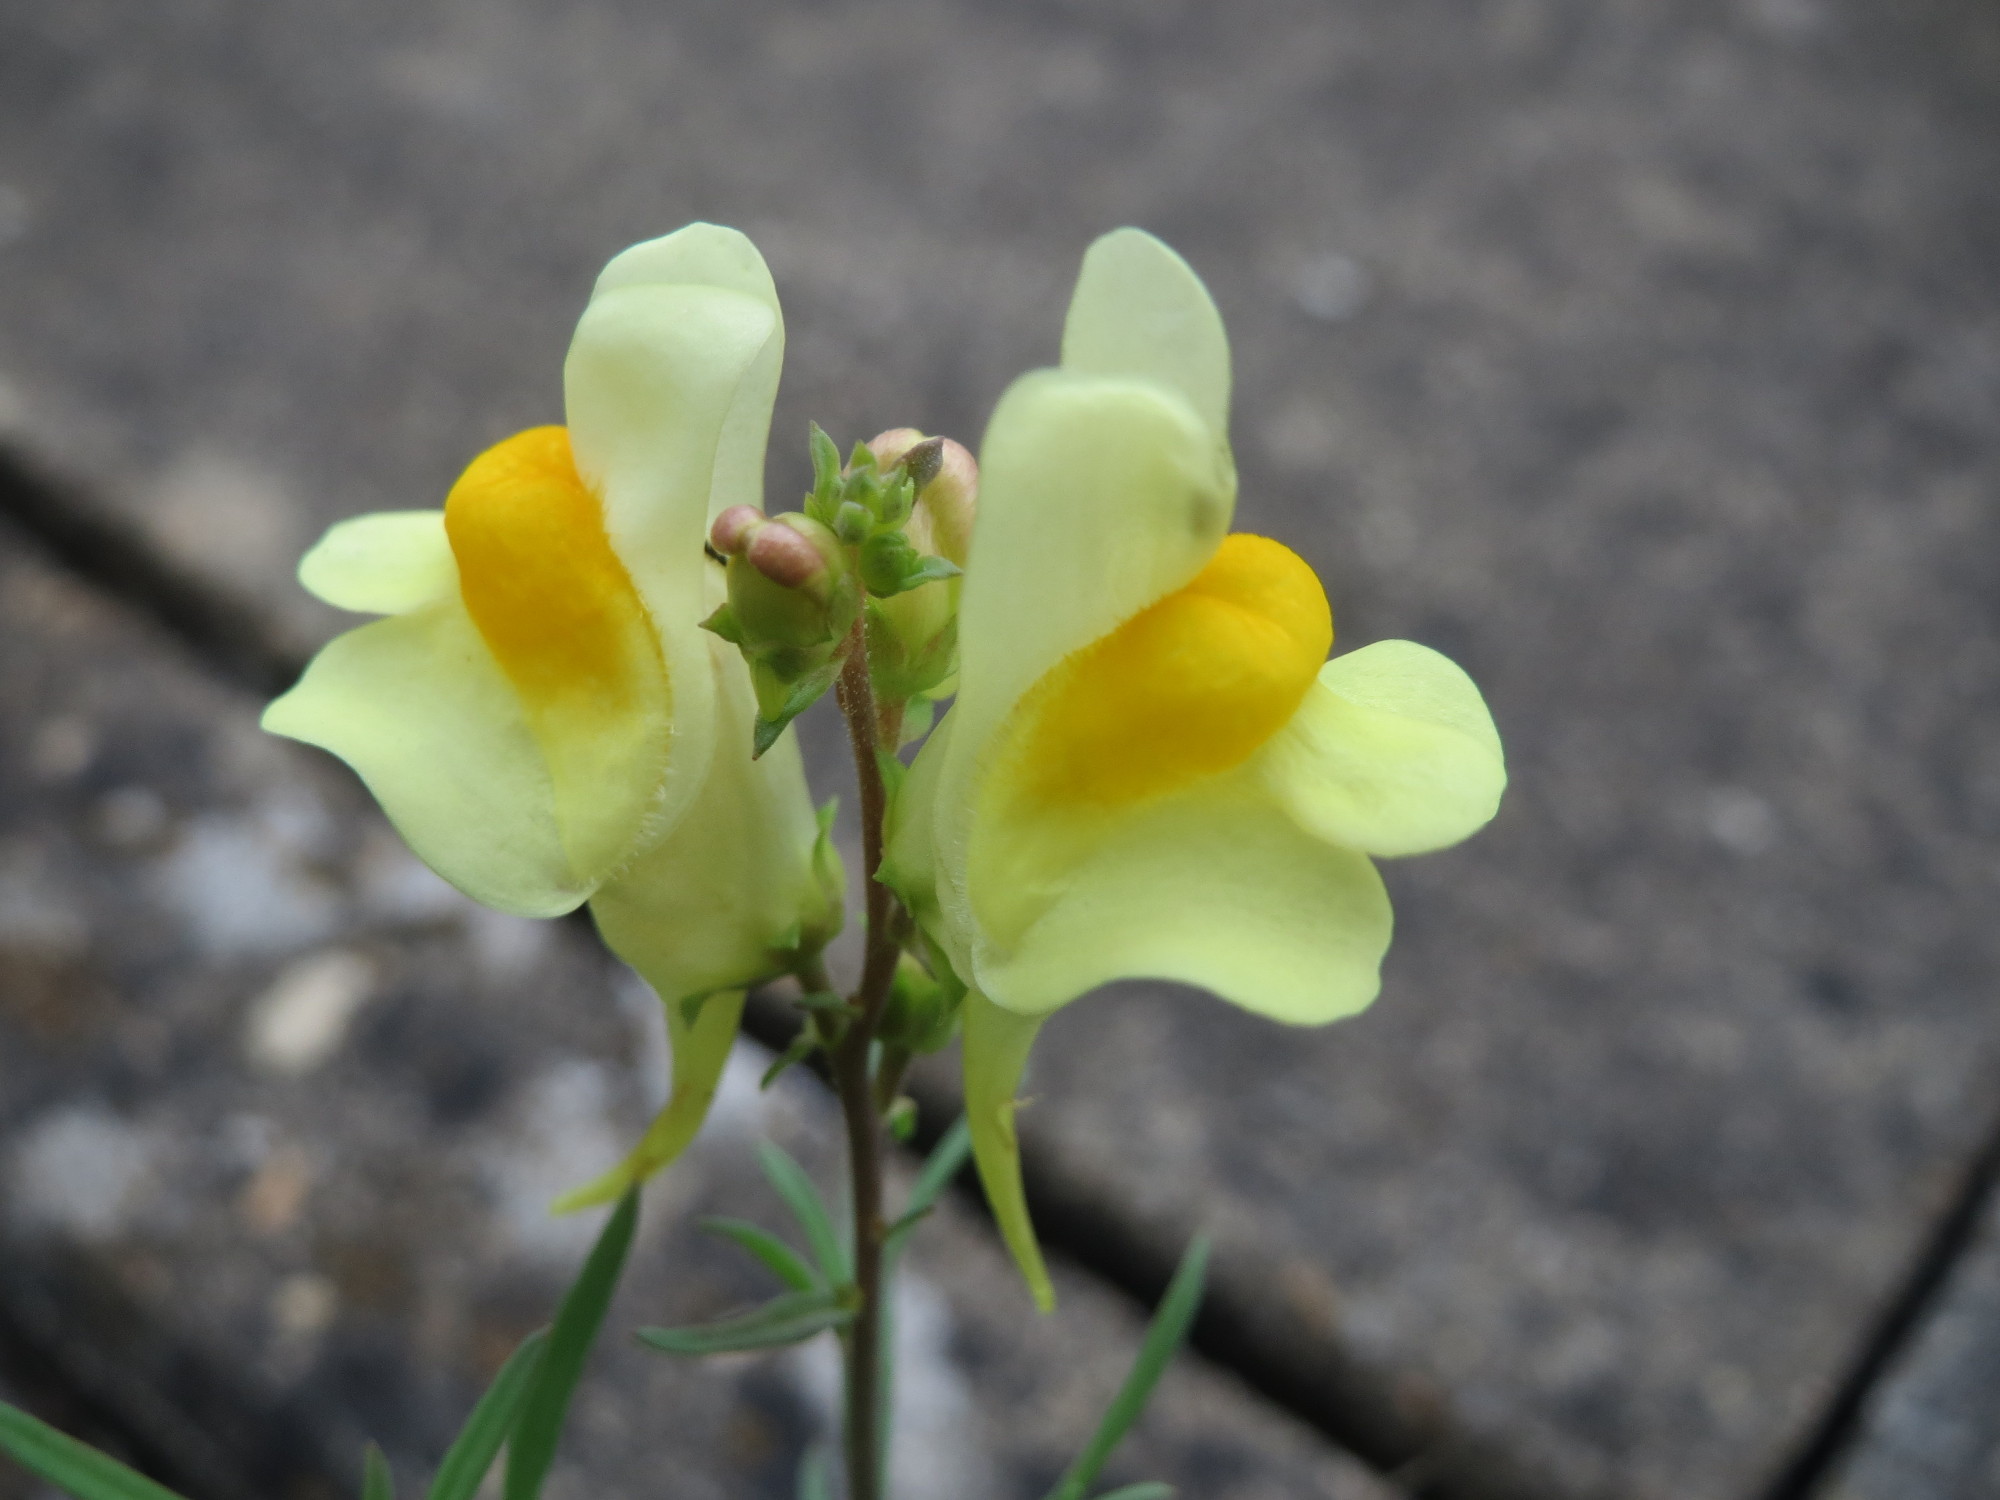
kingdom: Plantae
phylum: Tracheophyta
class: Magnoliopsida
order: Lamiales
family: Plantaginaceae
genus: Linaria
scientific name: Linaria vulgaris
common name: Butter and eggs
